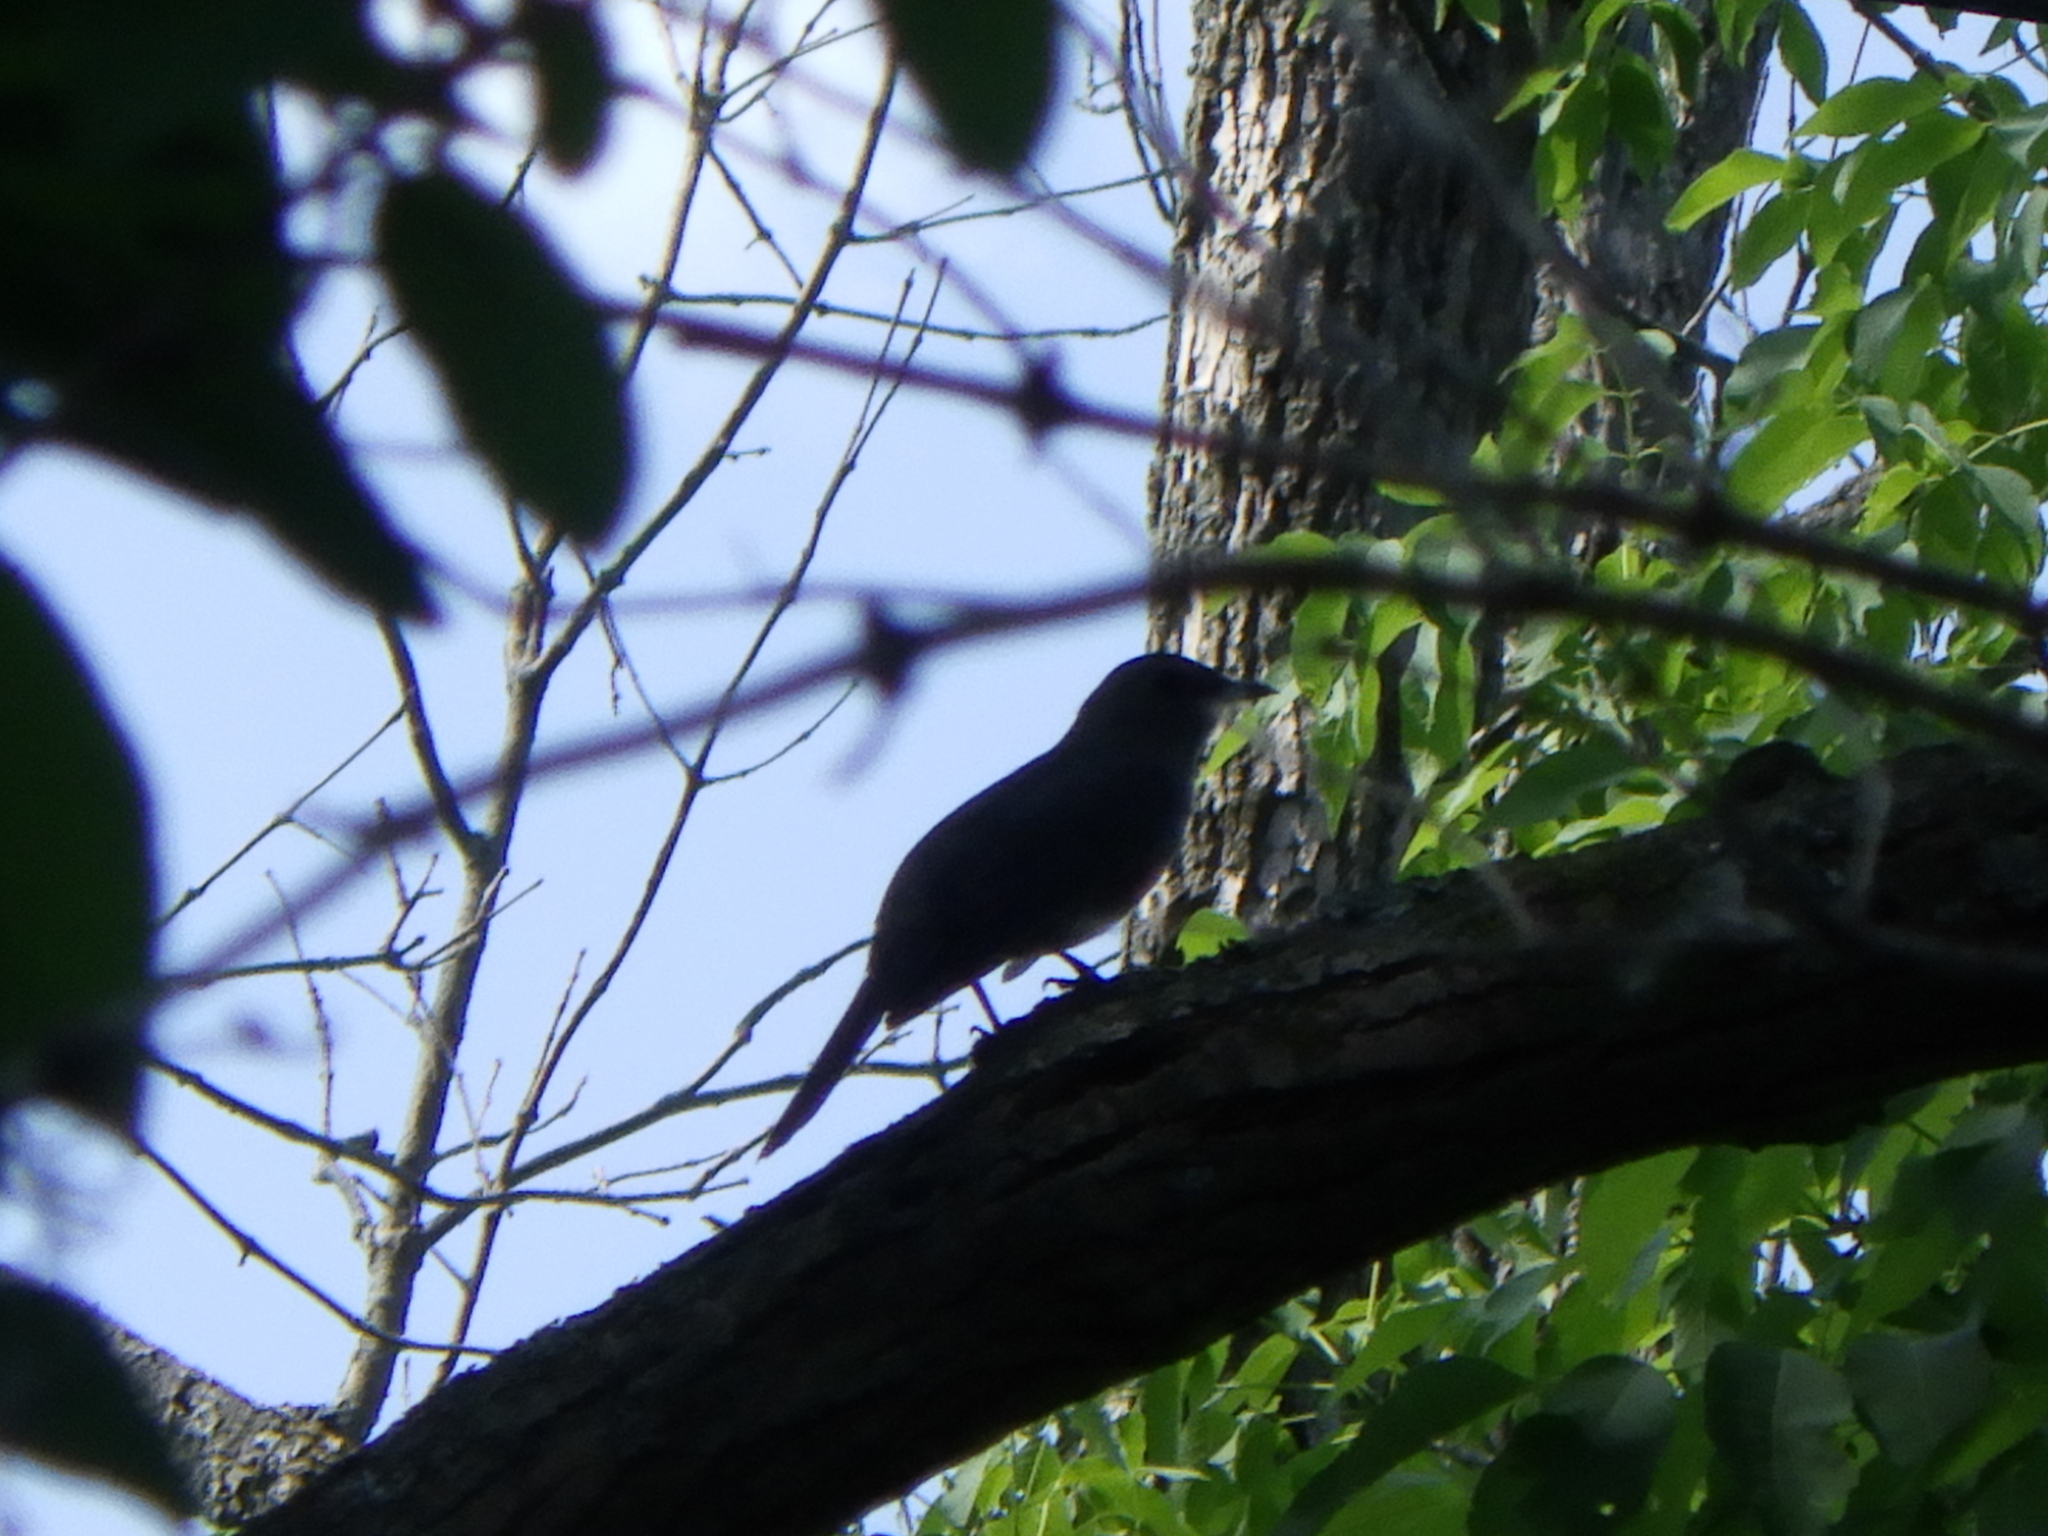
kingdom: Animalia
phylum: Chordata
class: Aves
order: Passeriformes
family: Mimidae
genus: Dumetella
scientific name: Dumetella carolinensis
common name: Gray catbird
